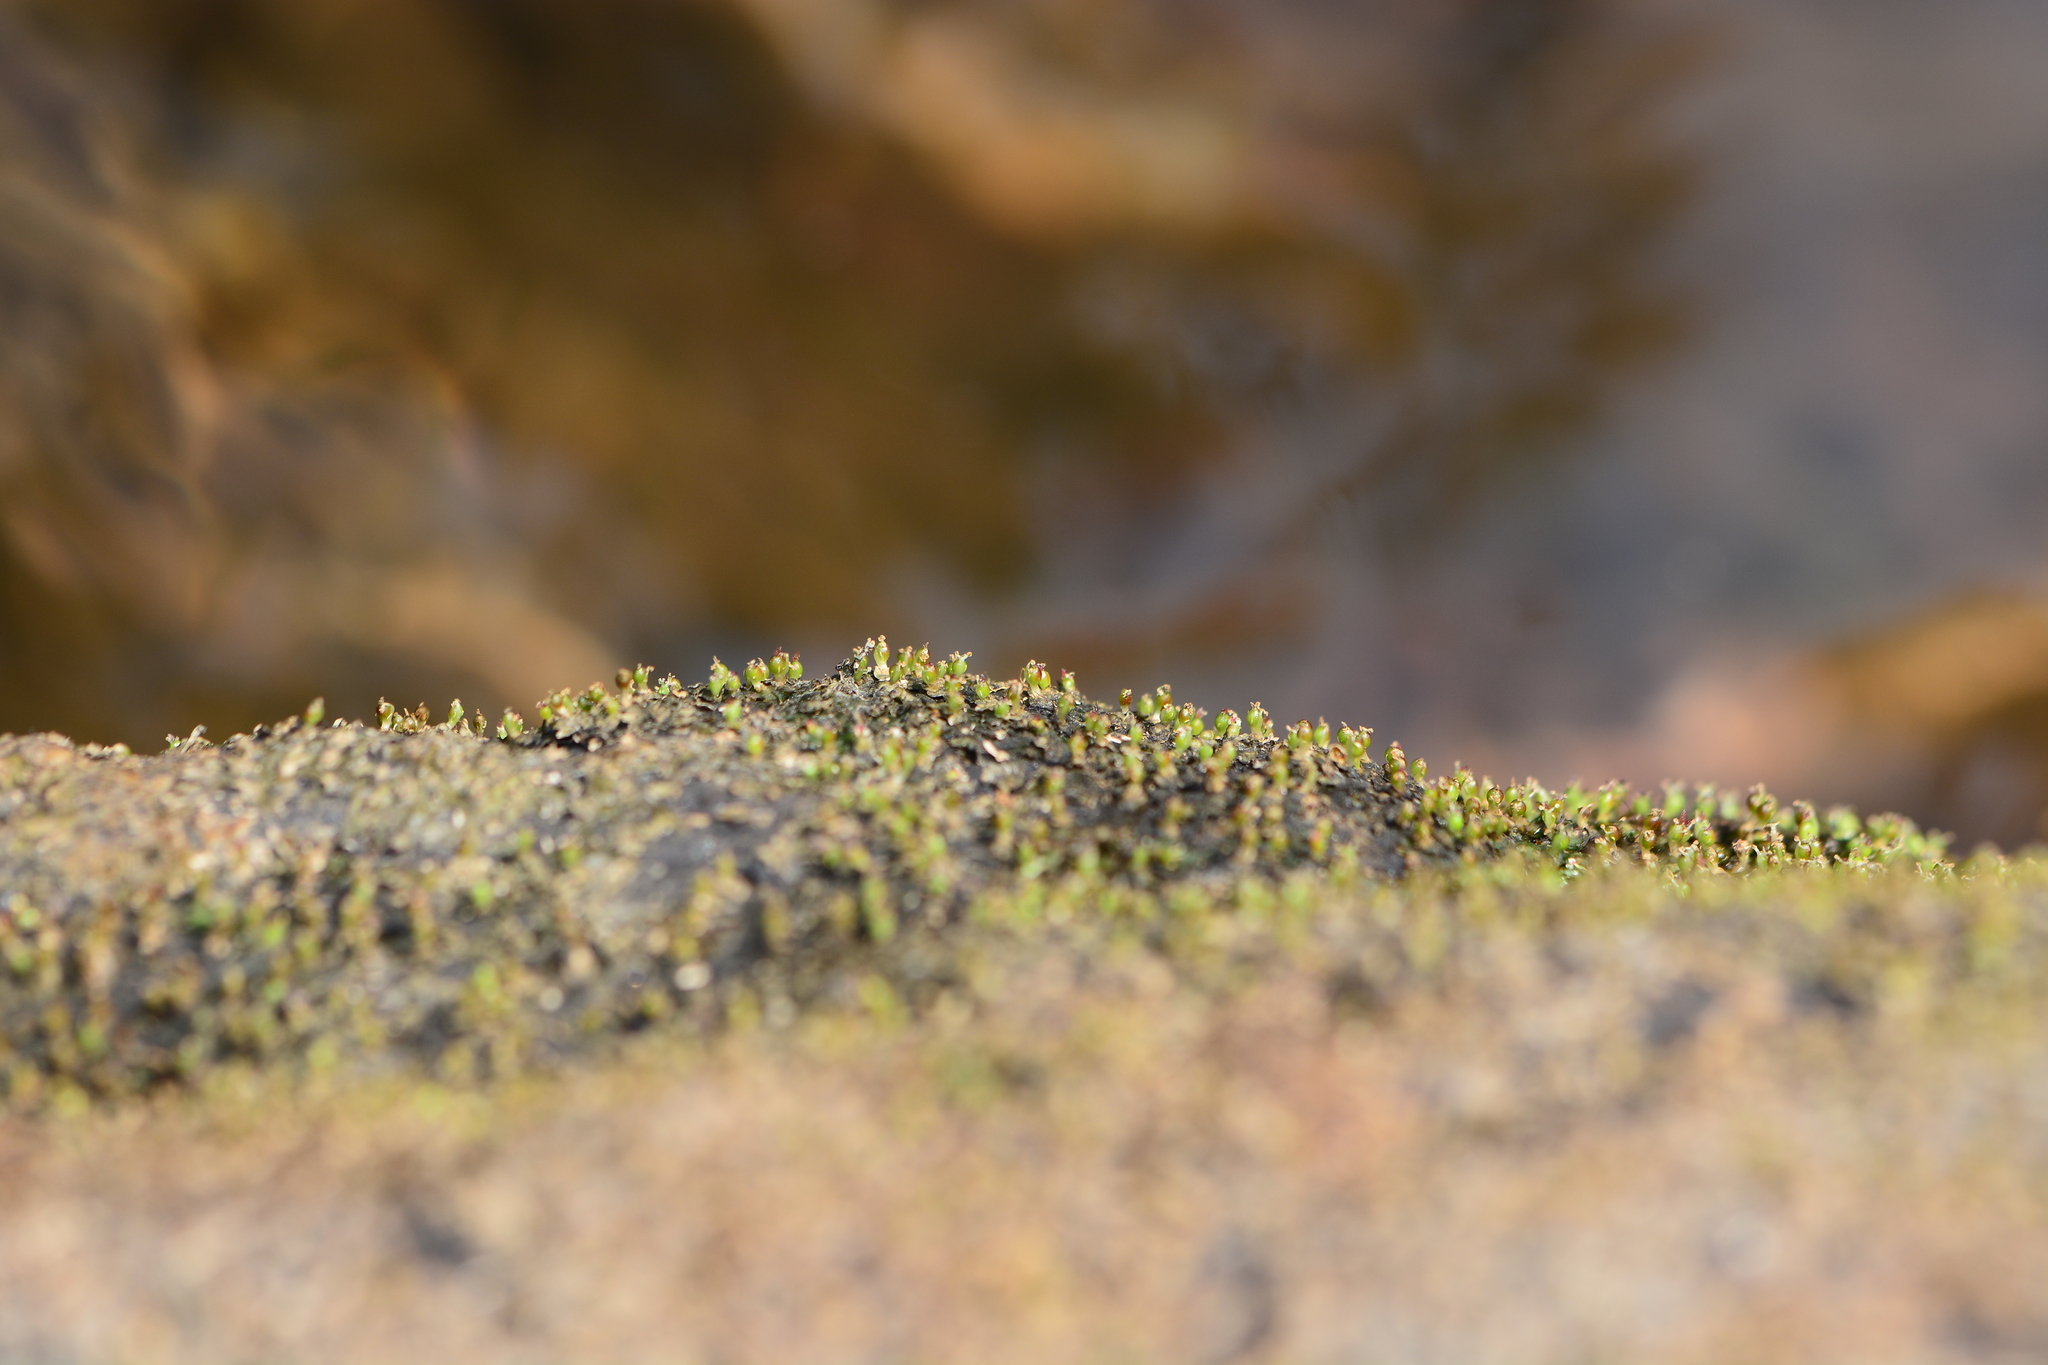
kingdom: Plantae
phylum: Tracheophyta
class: Magnoliopsida
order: Malpighiales
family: Podostemaceae
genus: Cladopus
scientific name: Cladopus hookeriana
